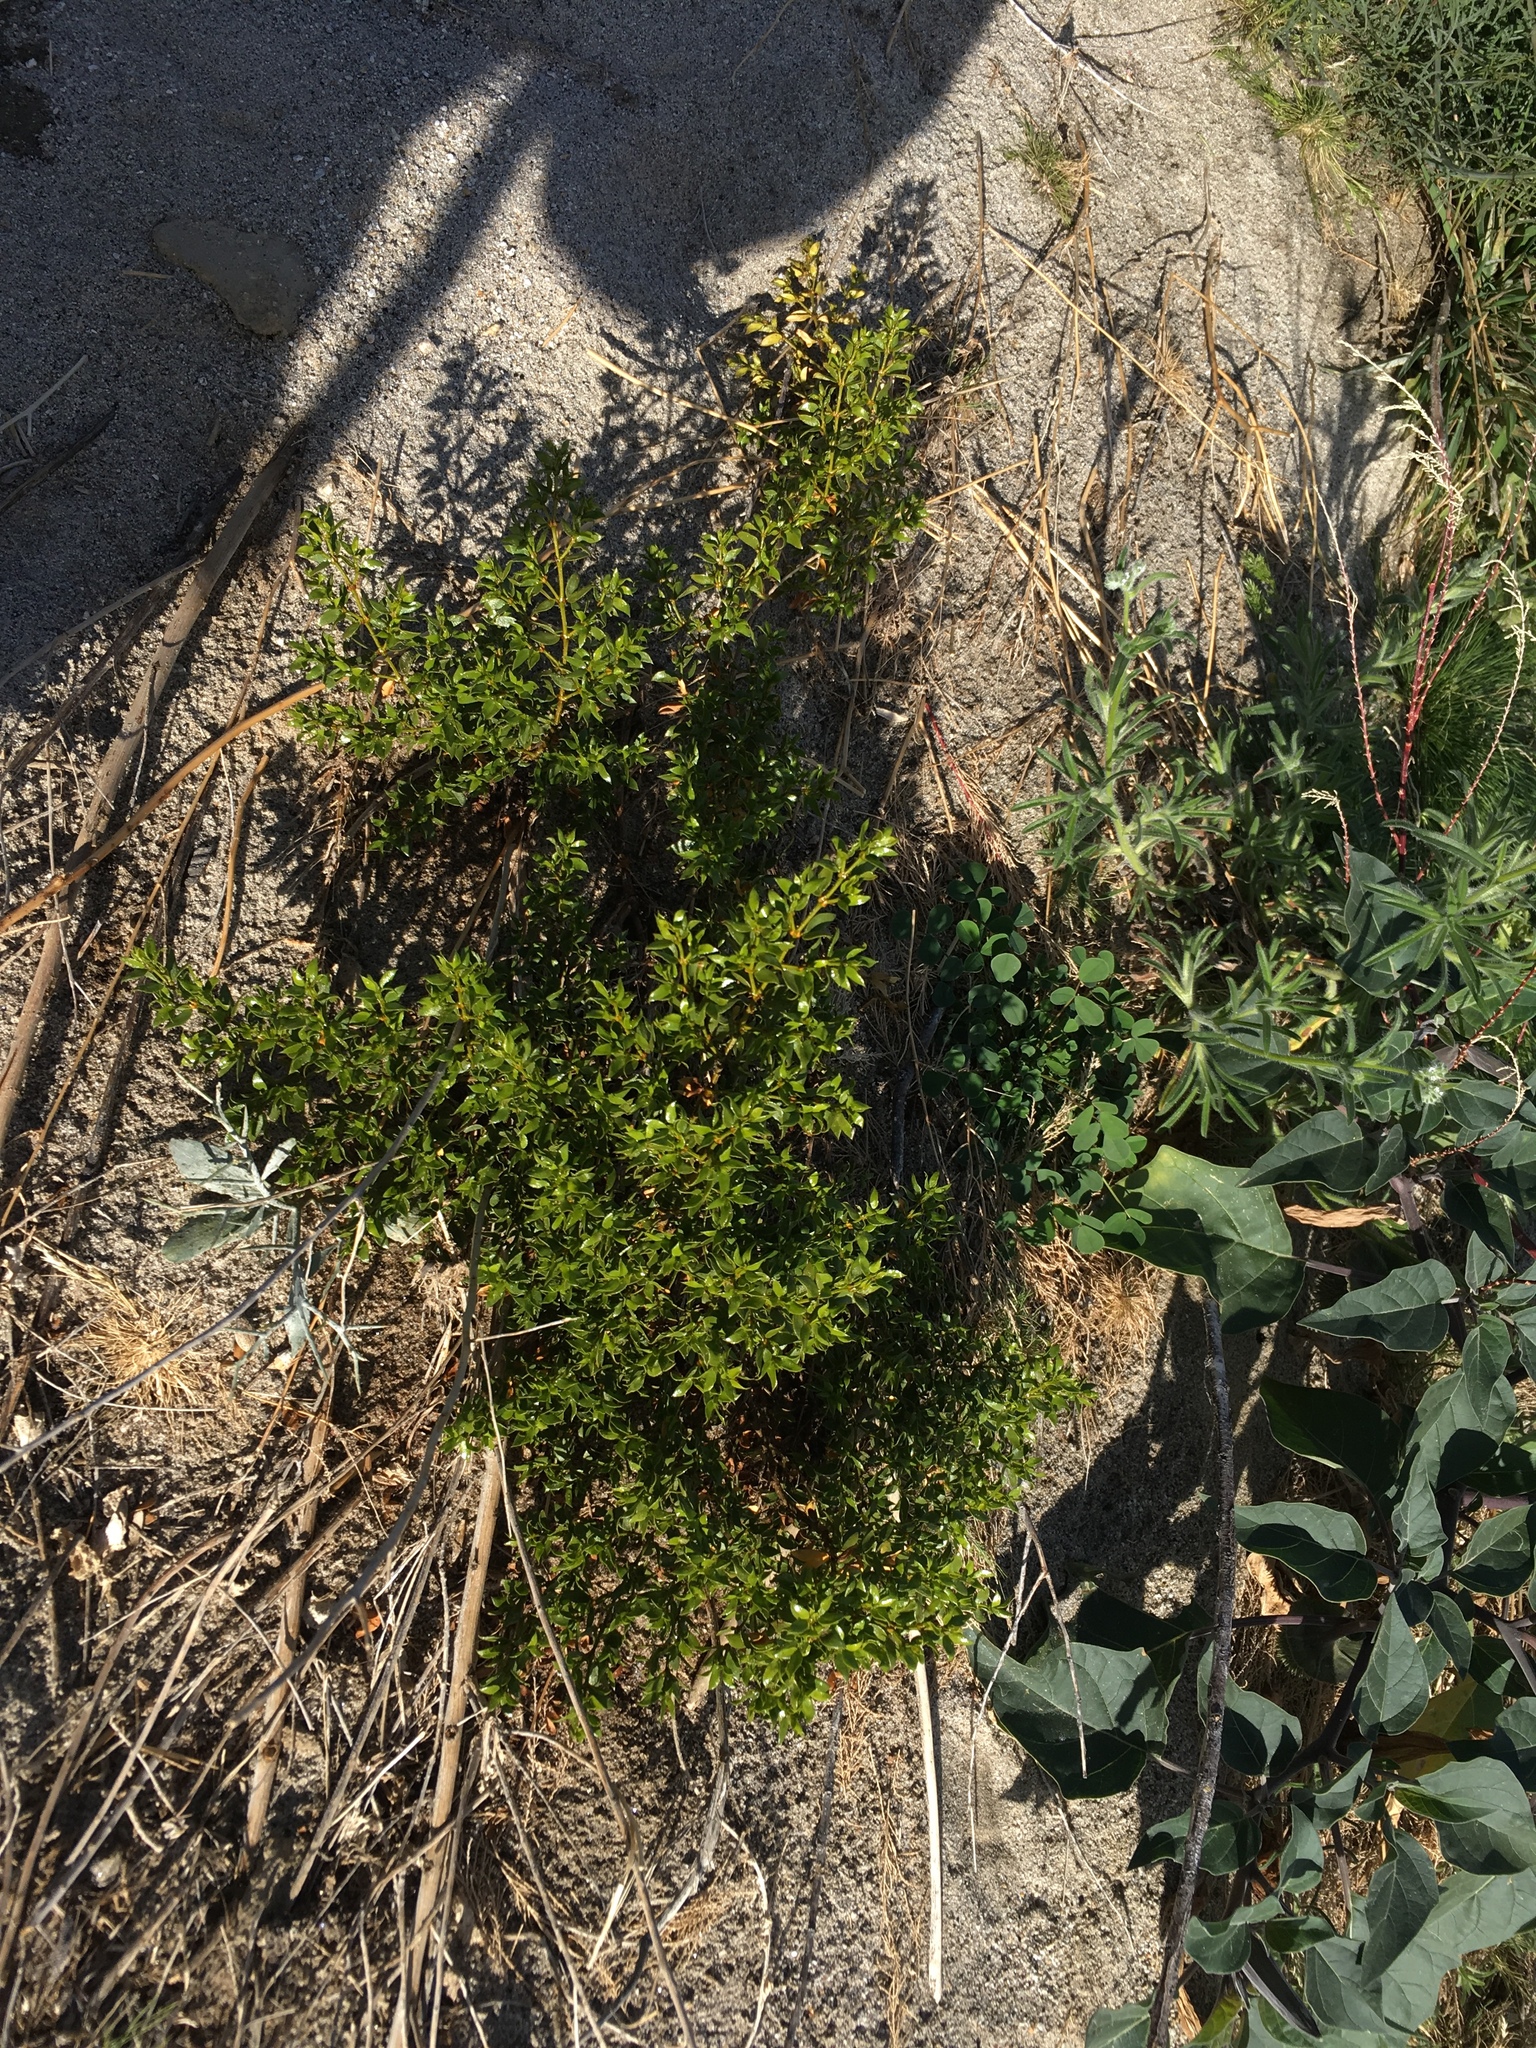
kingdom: Plantae
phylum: Tracheophyta
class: Magnoliopsida
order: Zygophyllales
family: Zygophyllaceae
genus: Larrea
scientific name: Larrea tridentata
